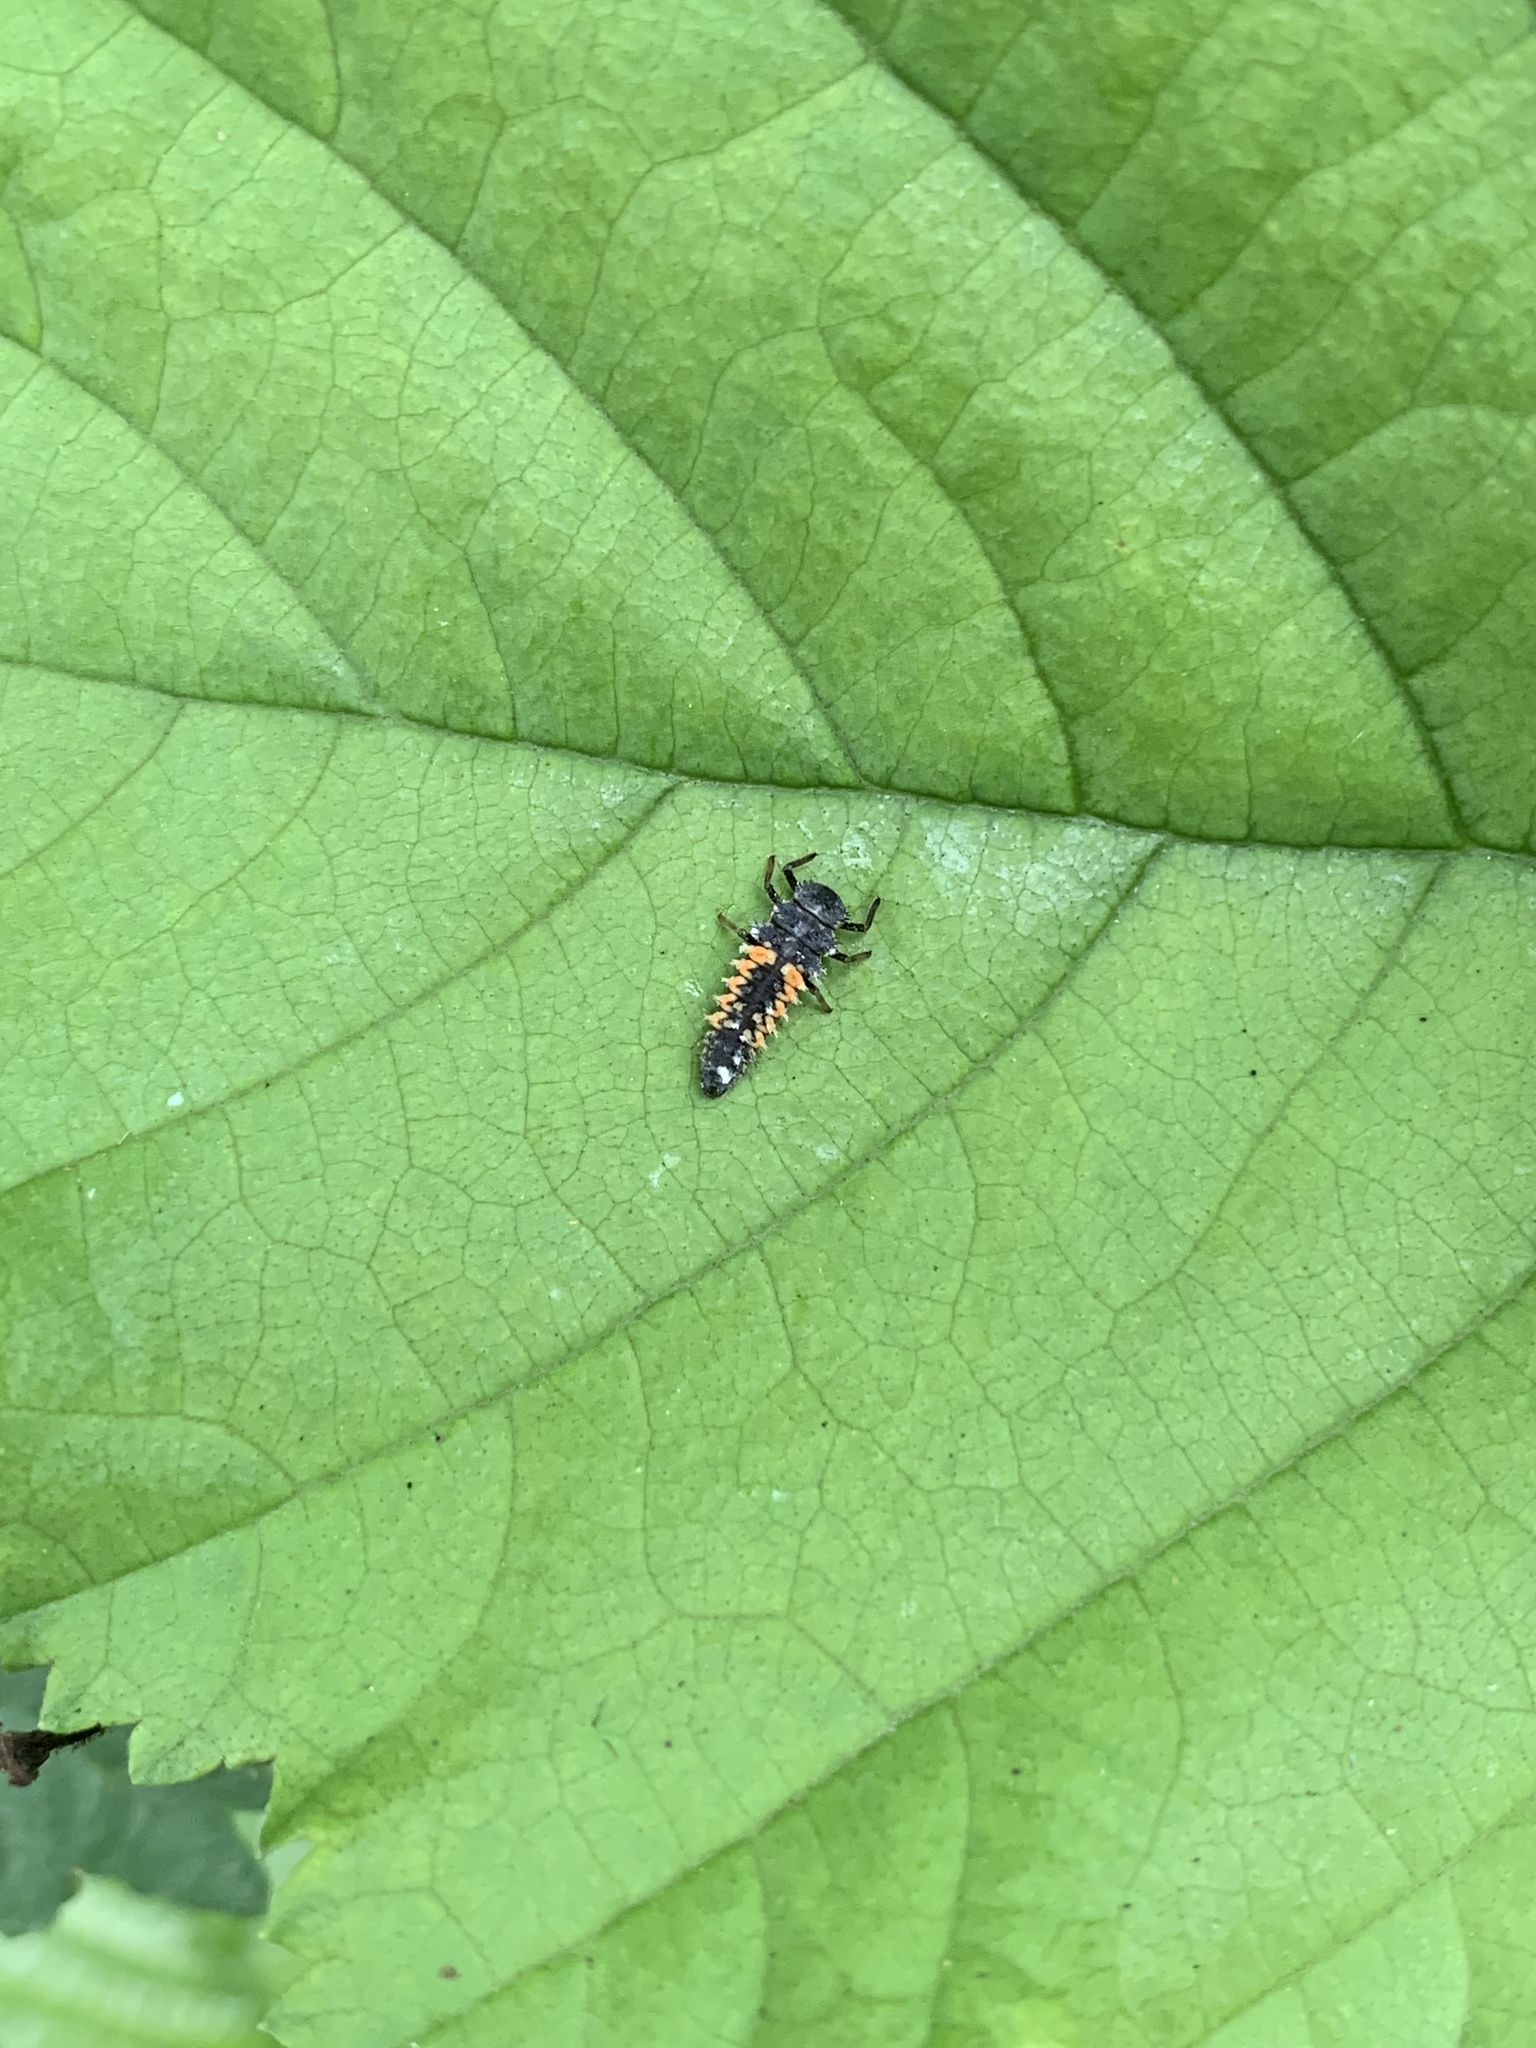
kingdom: Animalia
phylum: Arthropoda
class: Insecta
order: Coleoptera
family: Coccinellidae
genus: Harmonia
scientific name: Harmonia axyridis
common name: Harlequin ladybird
